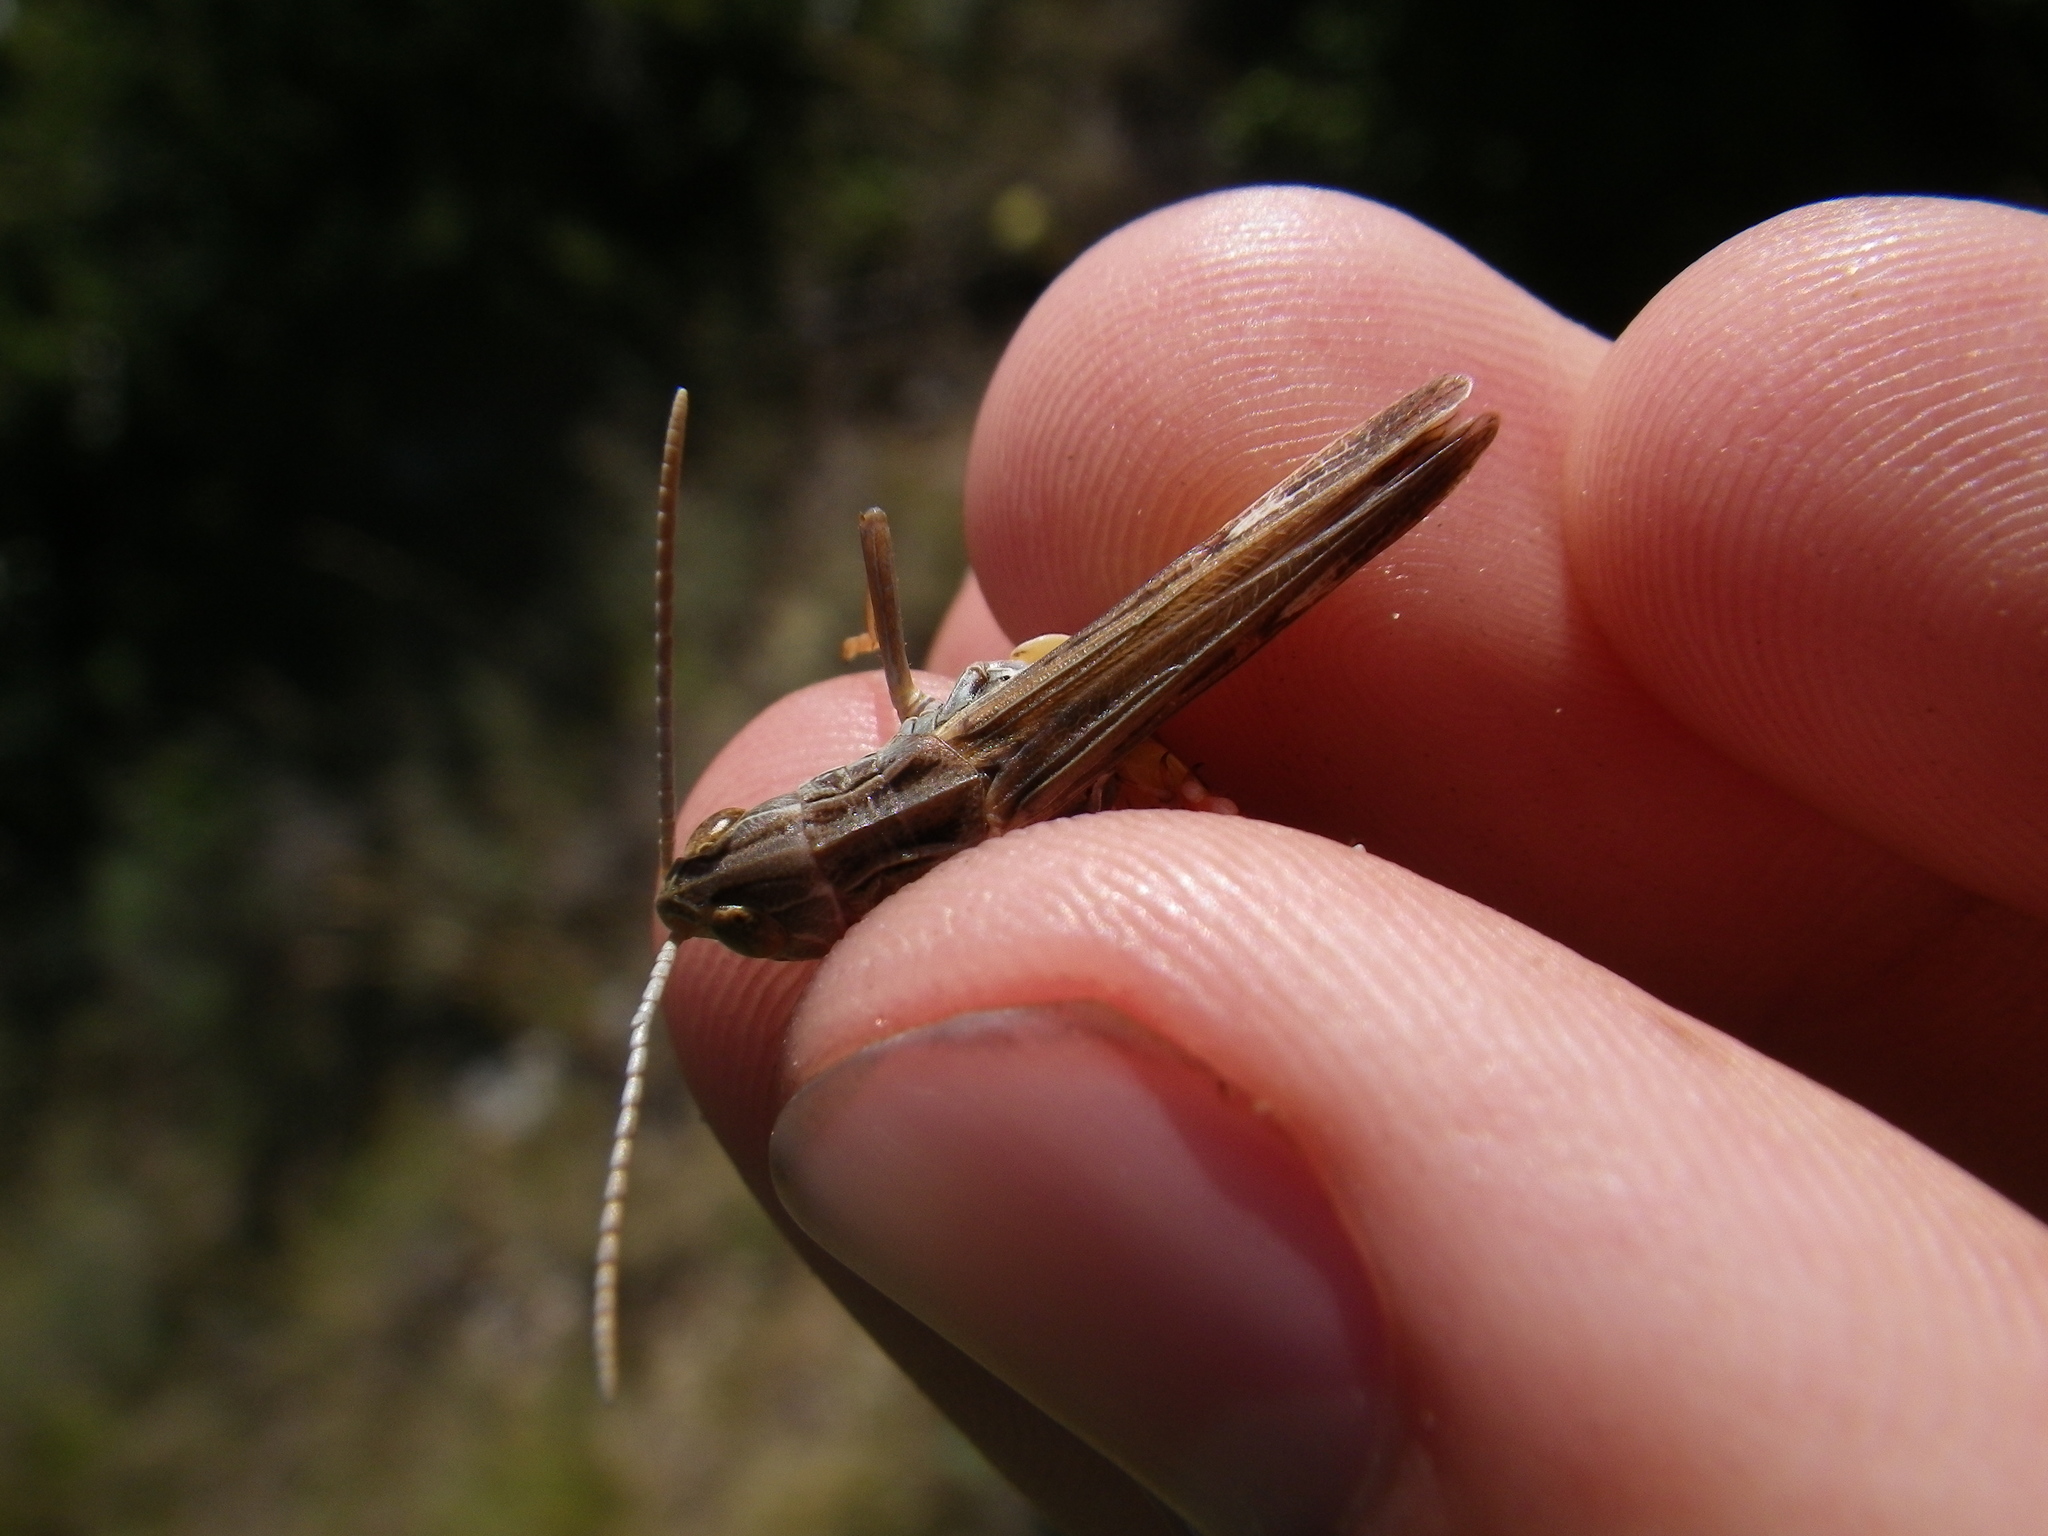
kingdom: Animalia
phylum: Arthropoda
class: Insecta
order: Orthoptera
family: Acrididae
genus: Stenobothrus
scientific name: Stenobothrus fischeri
